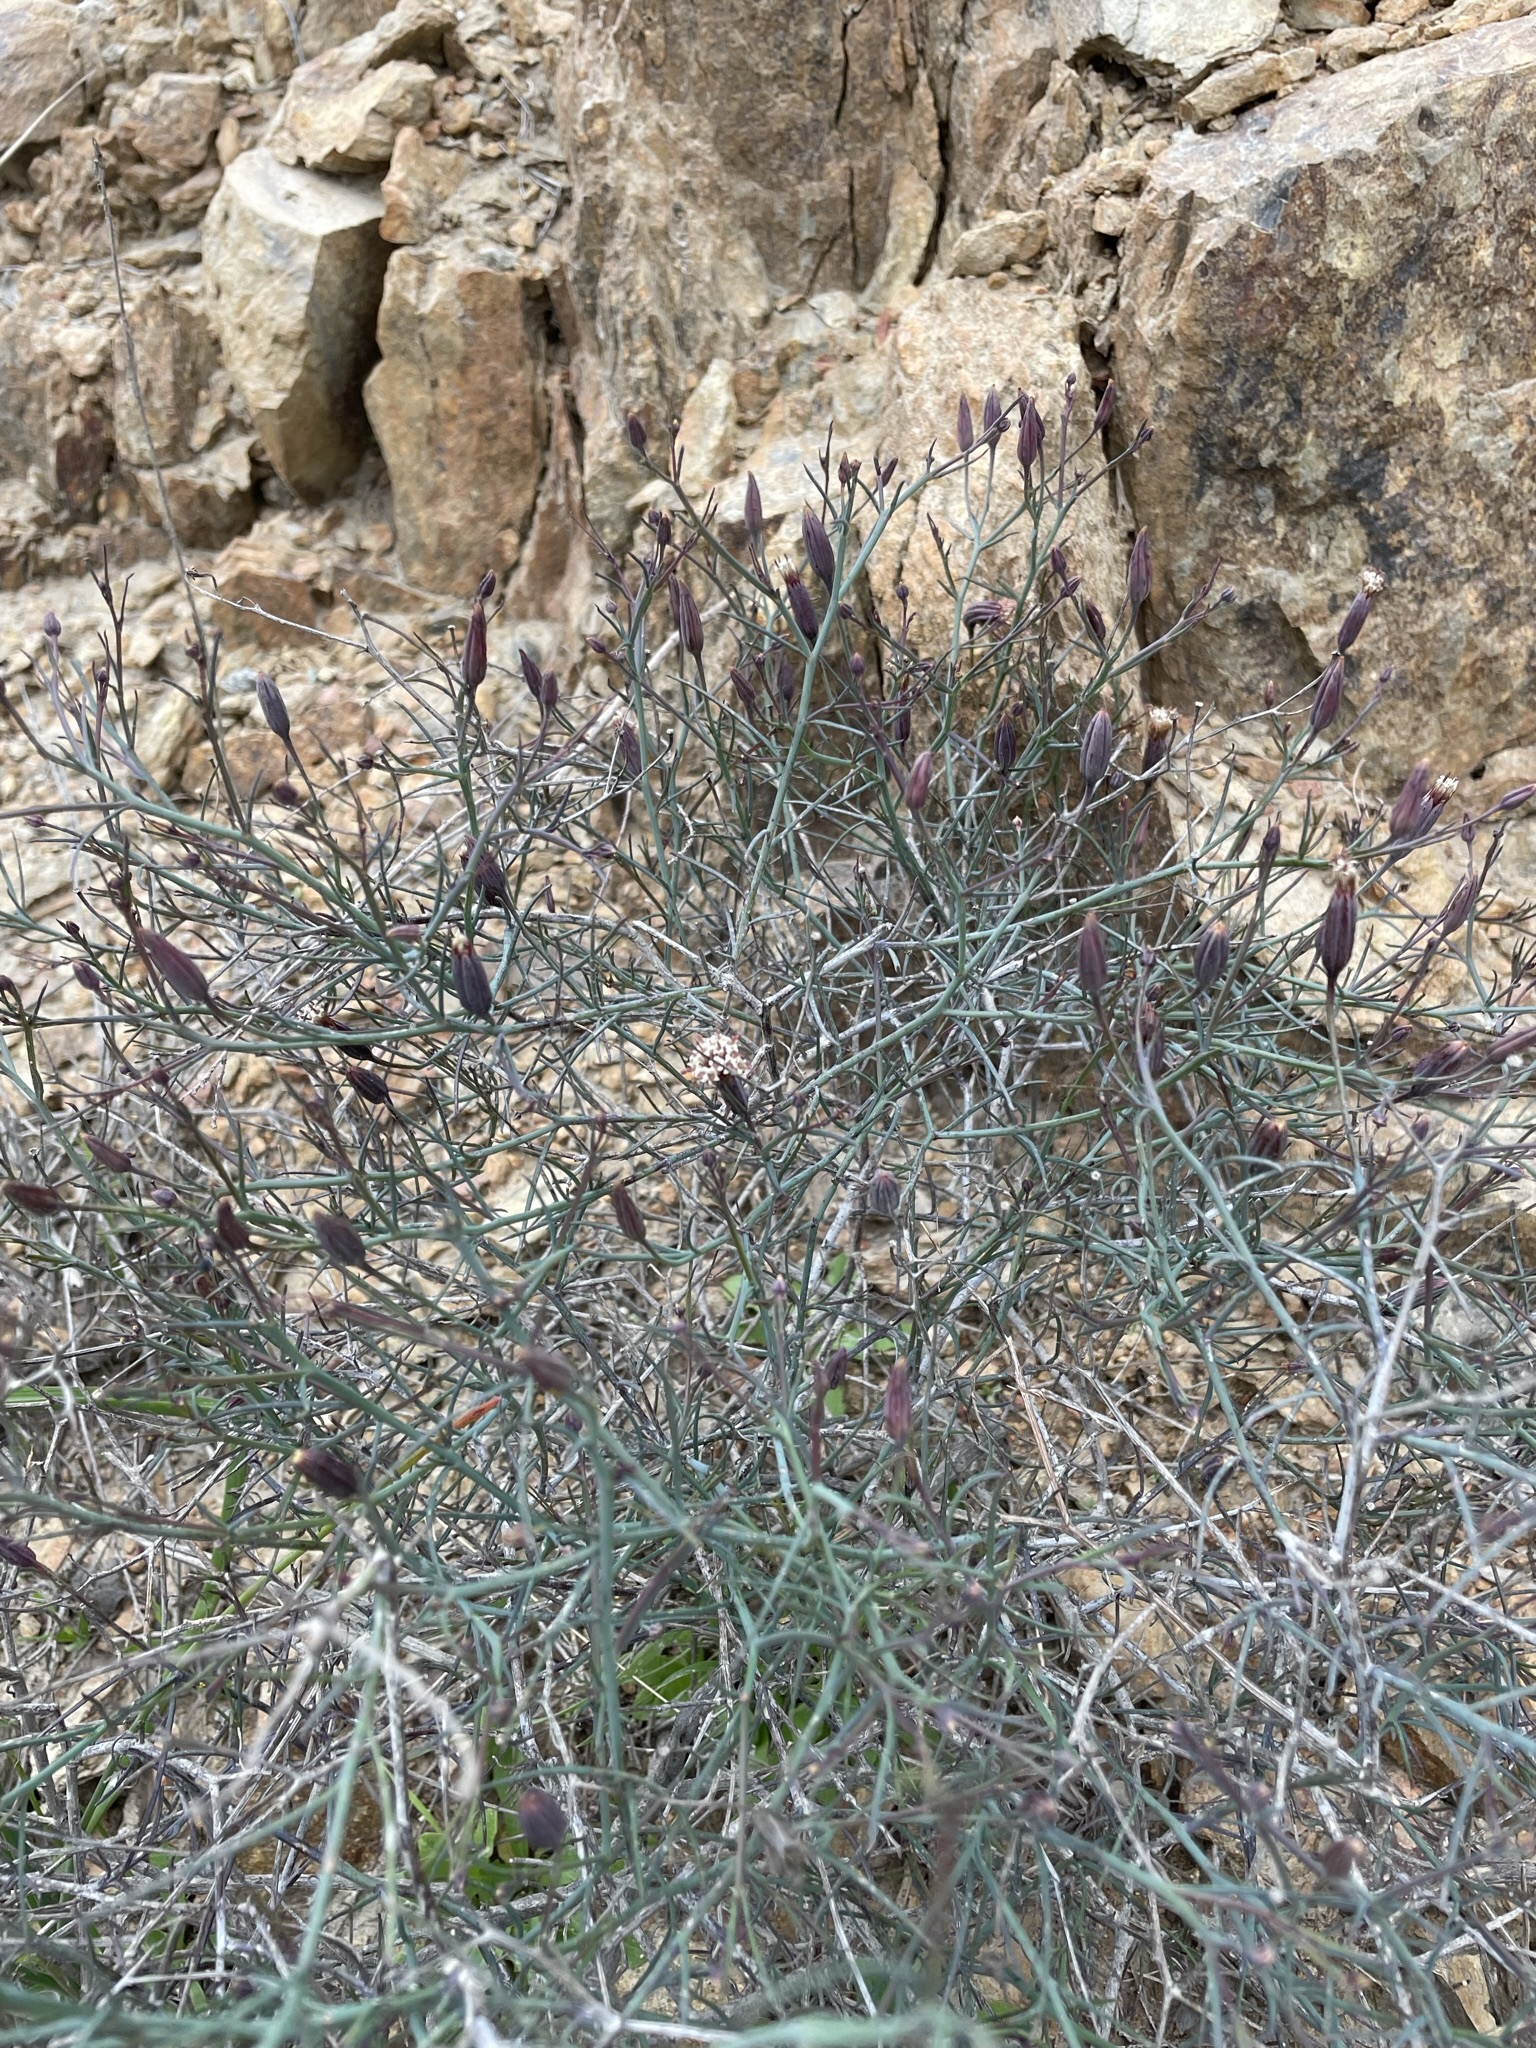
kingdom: Plantae
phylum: Tracheophyta
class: Magnoliopsida
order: Asterales
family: Asteraceae
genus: Porophyllum
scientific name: Porophyllum gracile
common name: Odora
